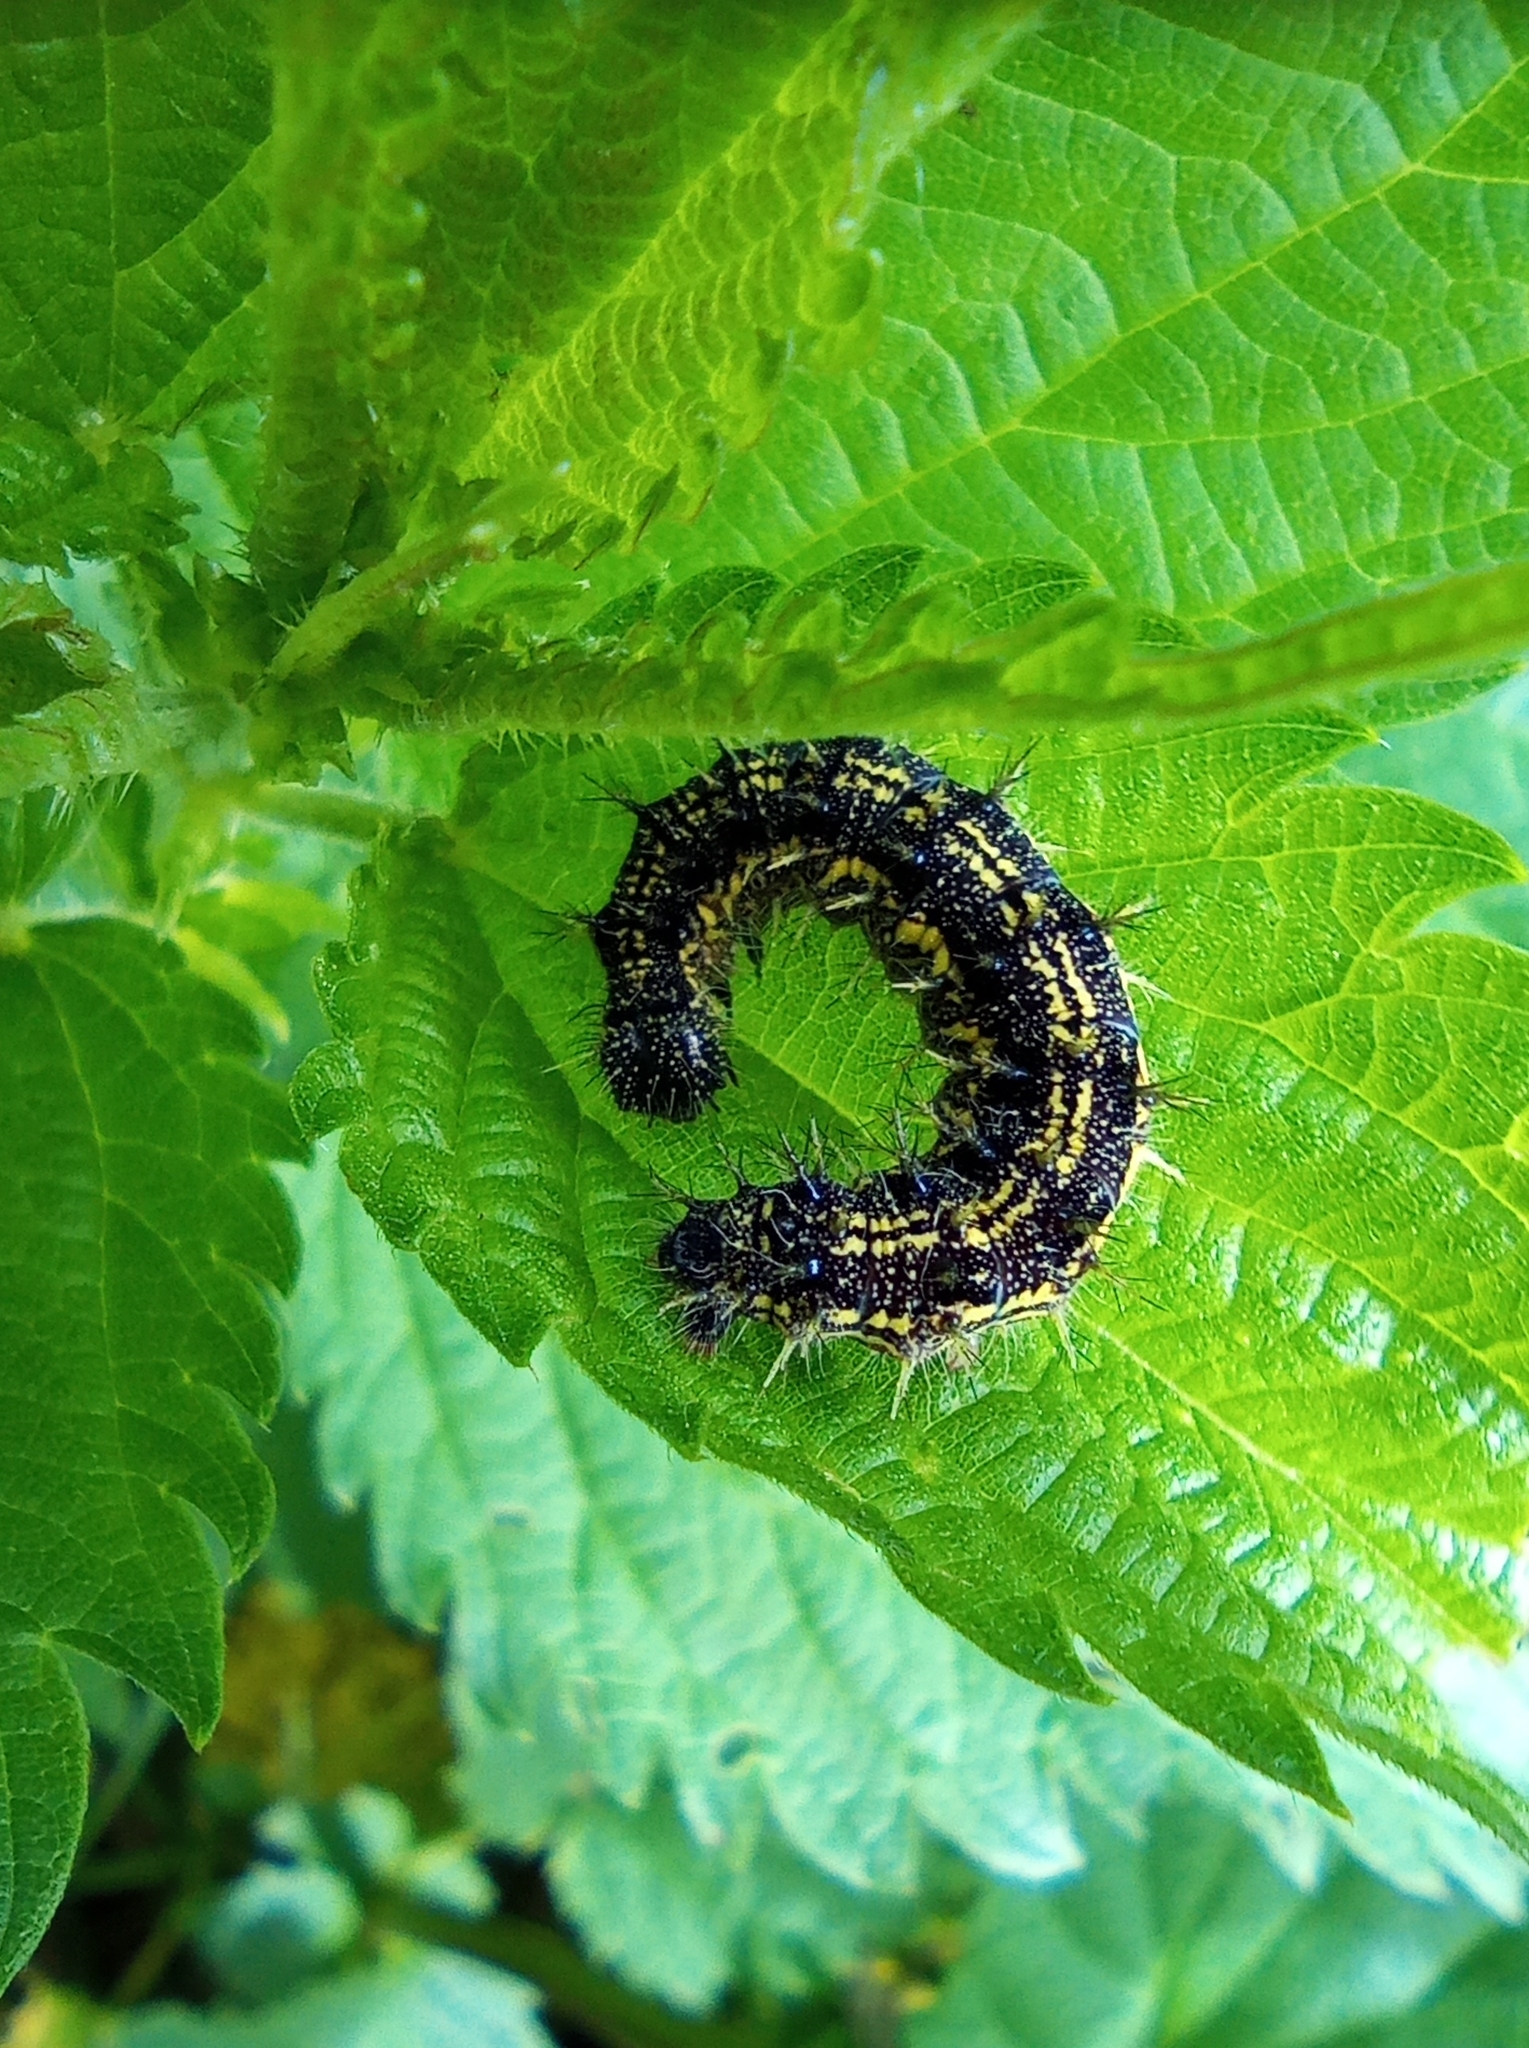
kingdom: Animalia
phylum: Arthropoda
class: Insecta
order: Lepidoptera
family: Nymphalidae
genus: Aglais
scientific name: Aglais urticae
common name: Small tortoiseshell
